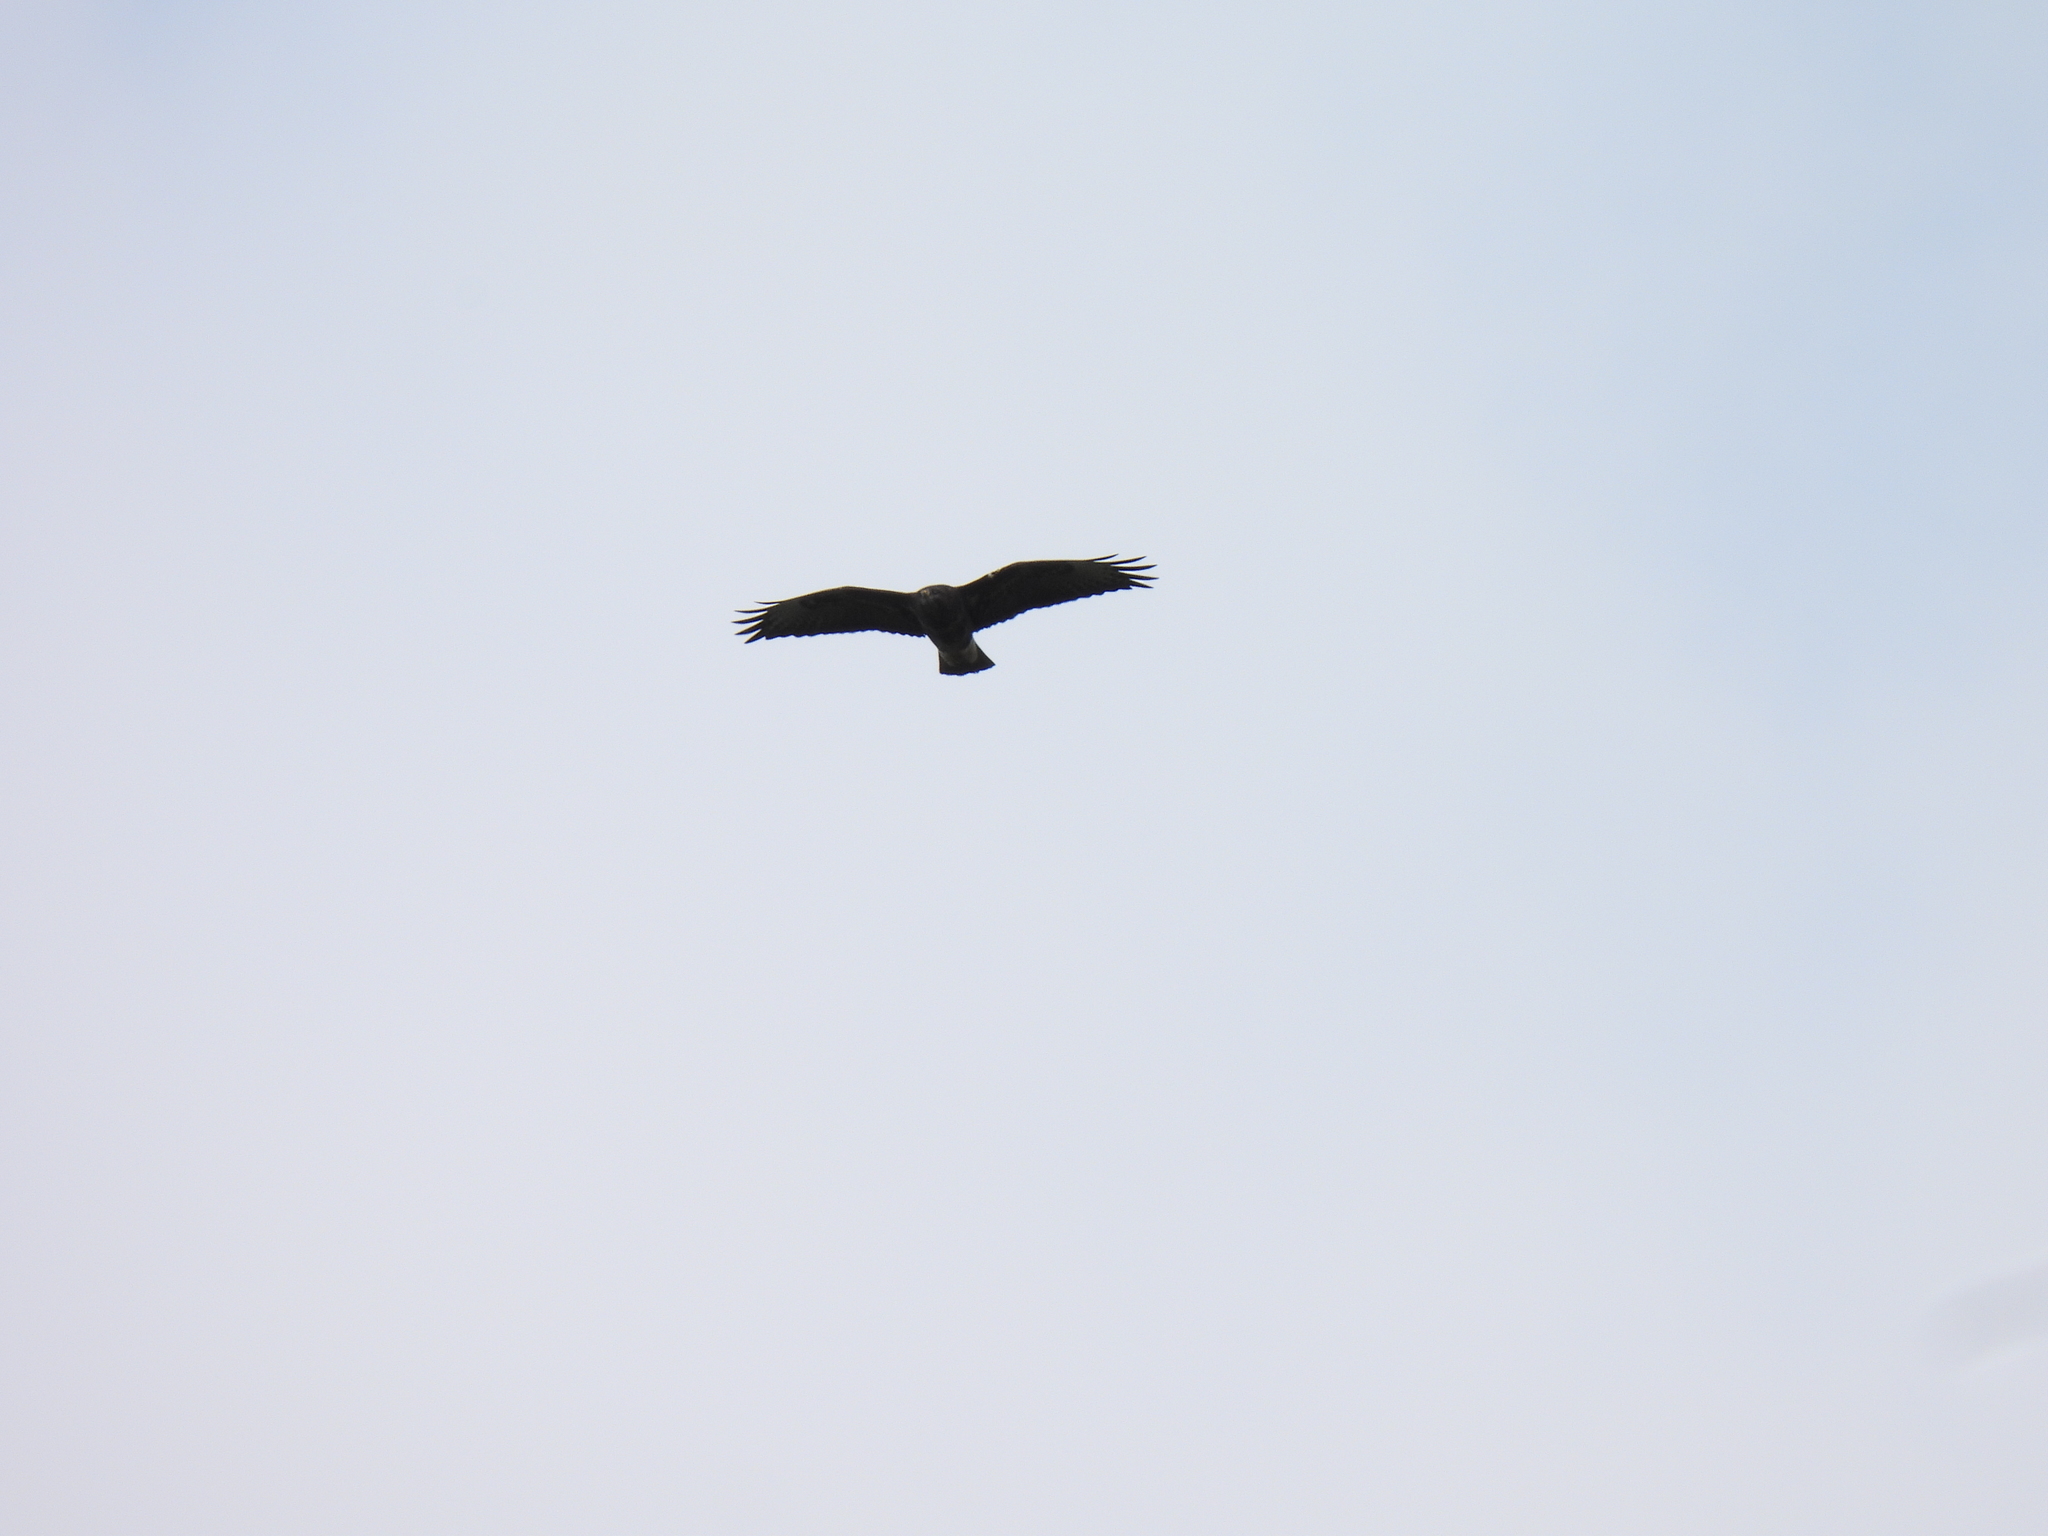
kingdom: Animalia
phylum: Chordata
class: Aves
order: Accipitriformes
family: Accipitridae
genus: Buteo
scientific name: Buteo buteo
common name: Common buzzard
